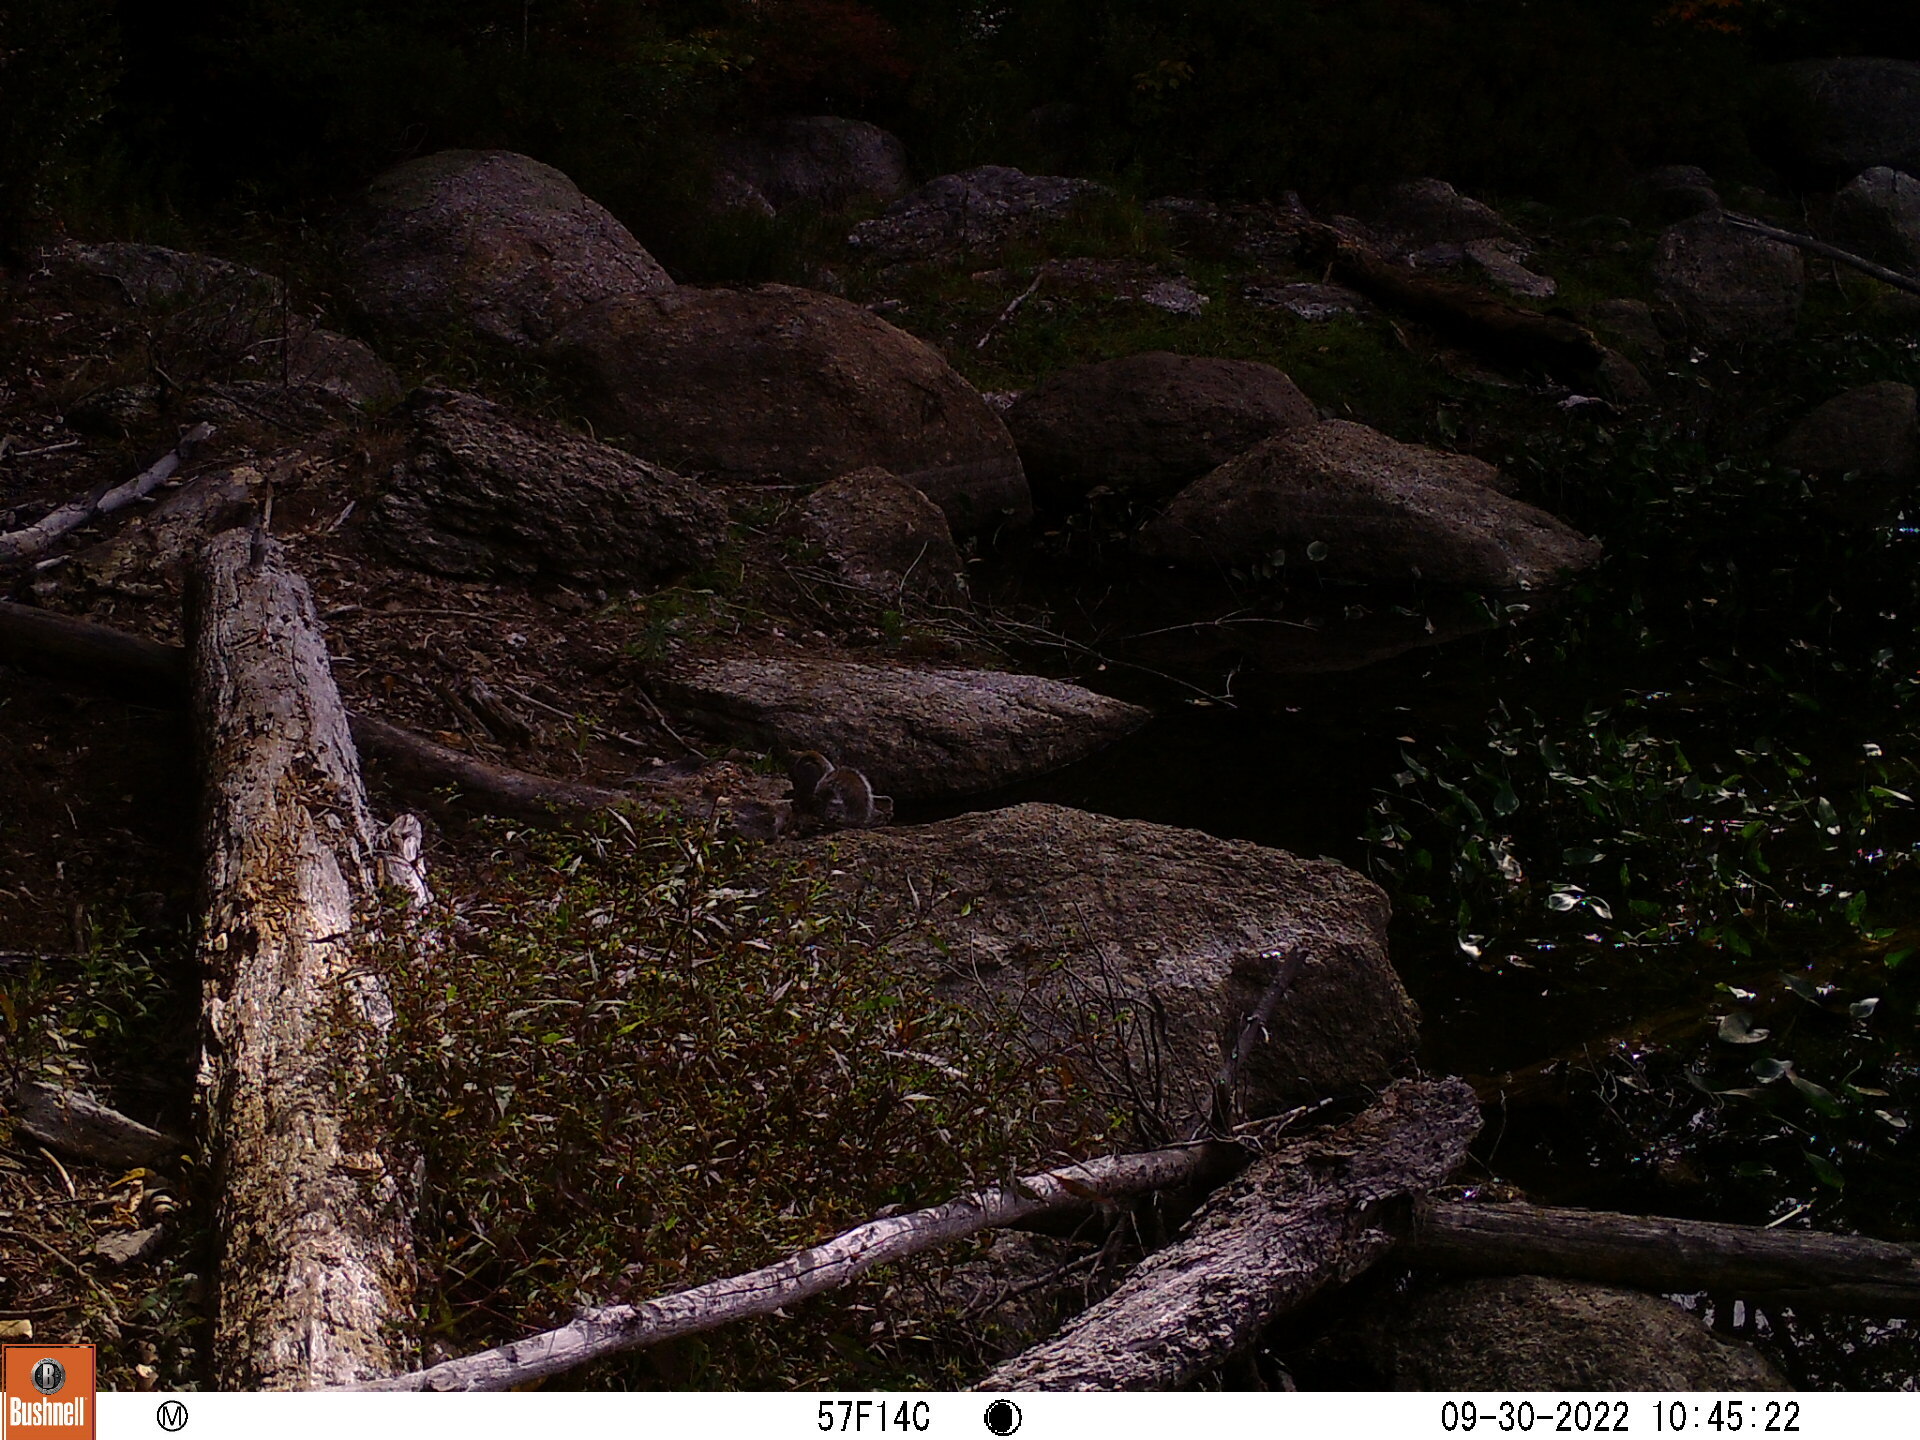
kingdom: Animalia
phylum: Chordata
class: Mammalia
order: Rodentia
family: Sciuridae
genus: Sciurus
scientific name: Sciurus carolinensis
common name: Eastern gray squirrel
